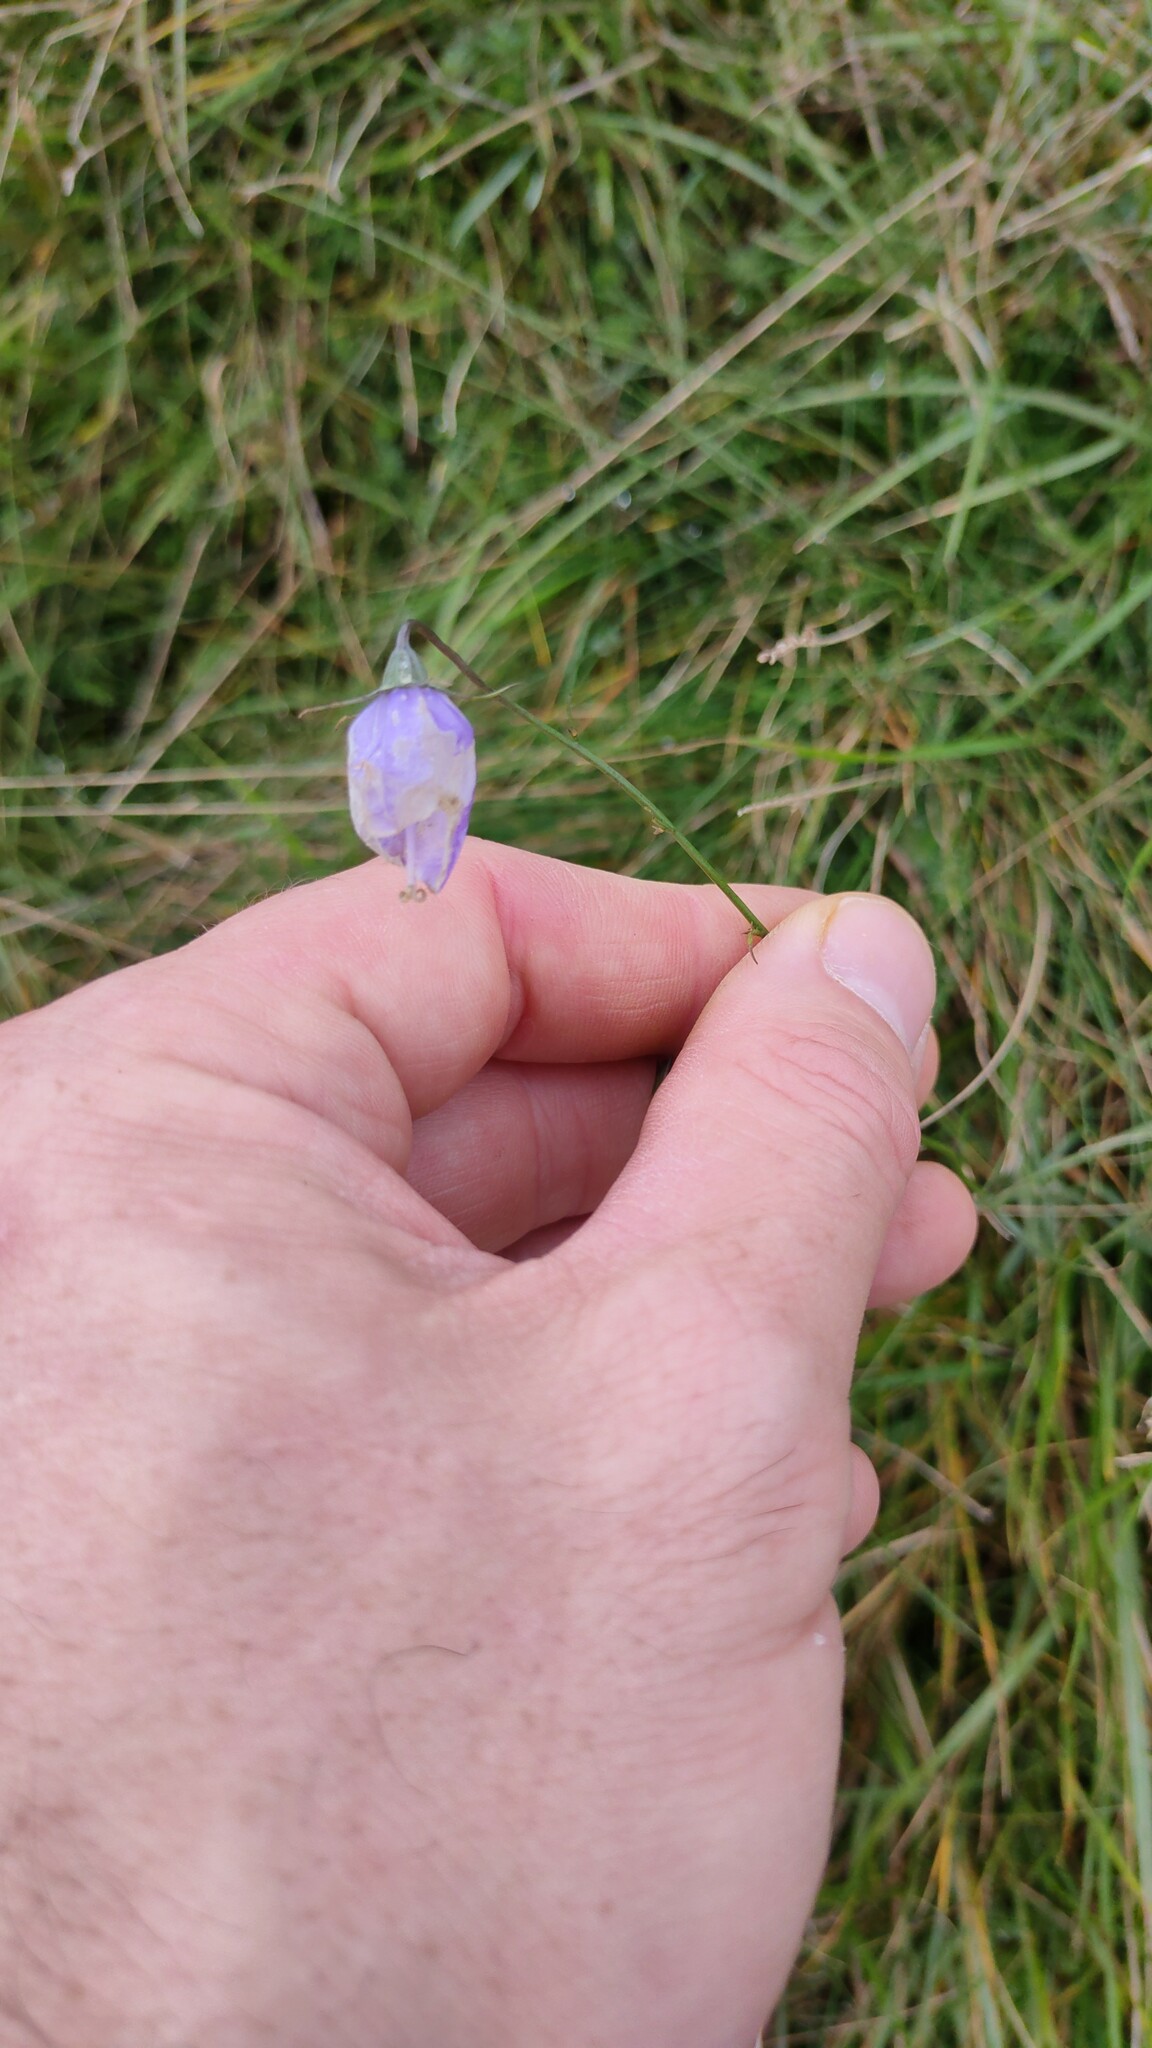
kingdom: Plantae
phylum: Tracheophyta
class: Magnoliopsida
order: Asterales
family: Campanulaceae
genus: Campanula
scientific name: Campanula rotundifolia
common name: Harebell
